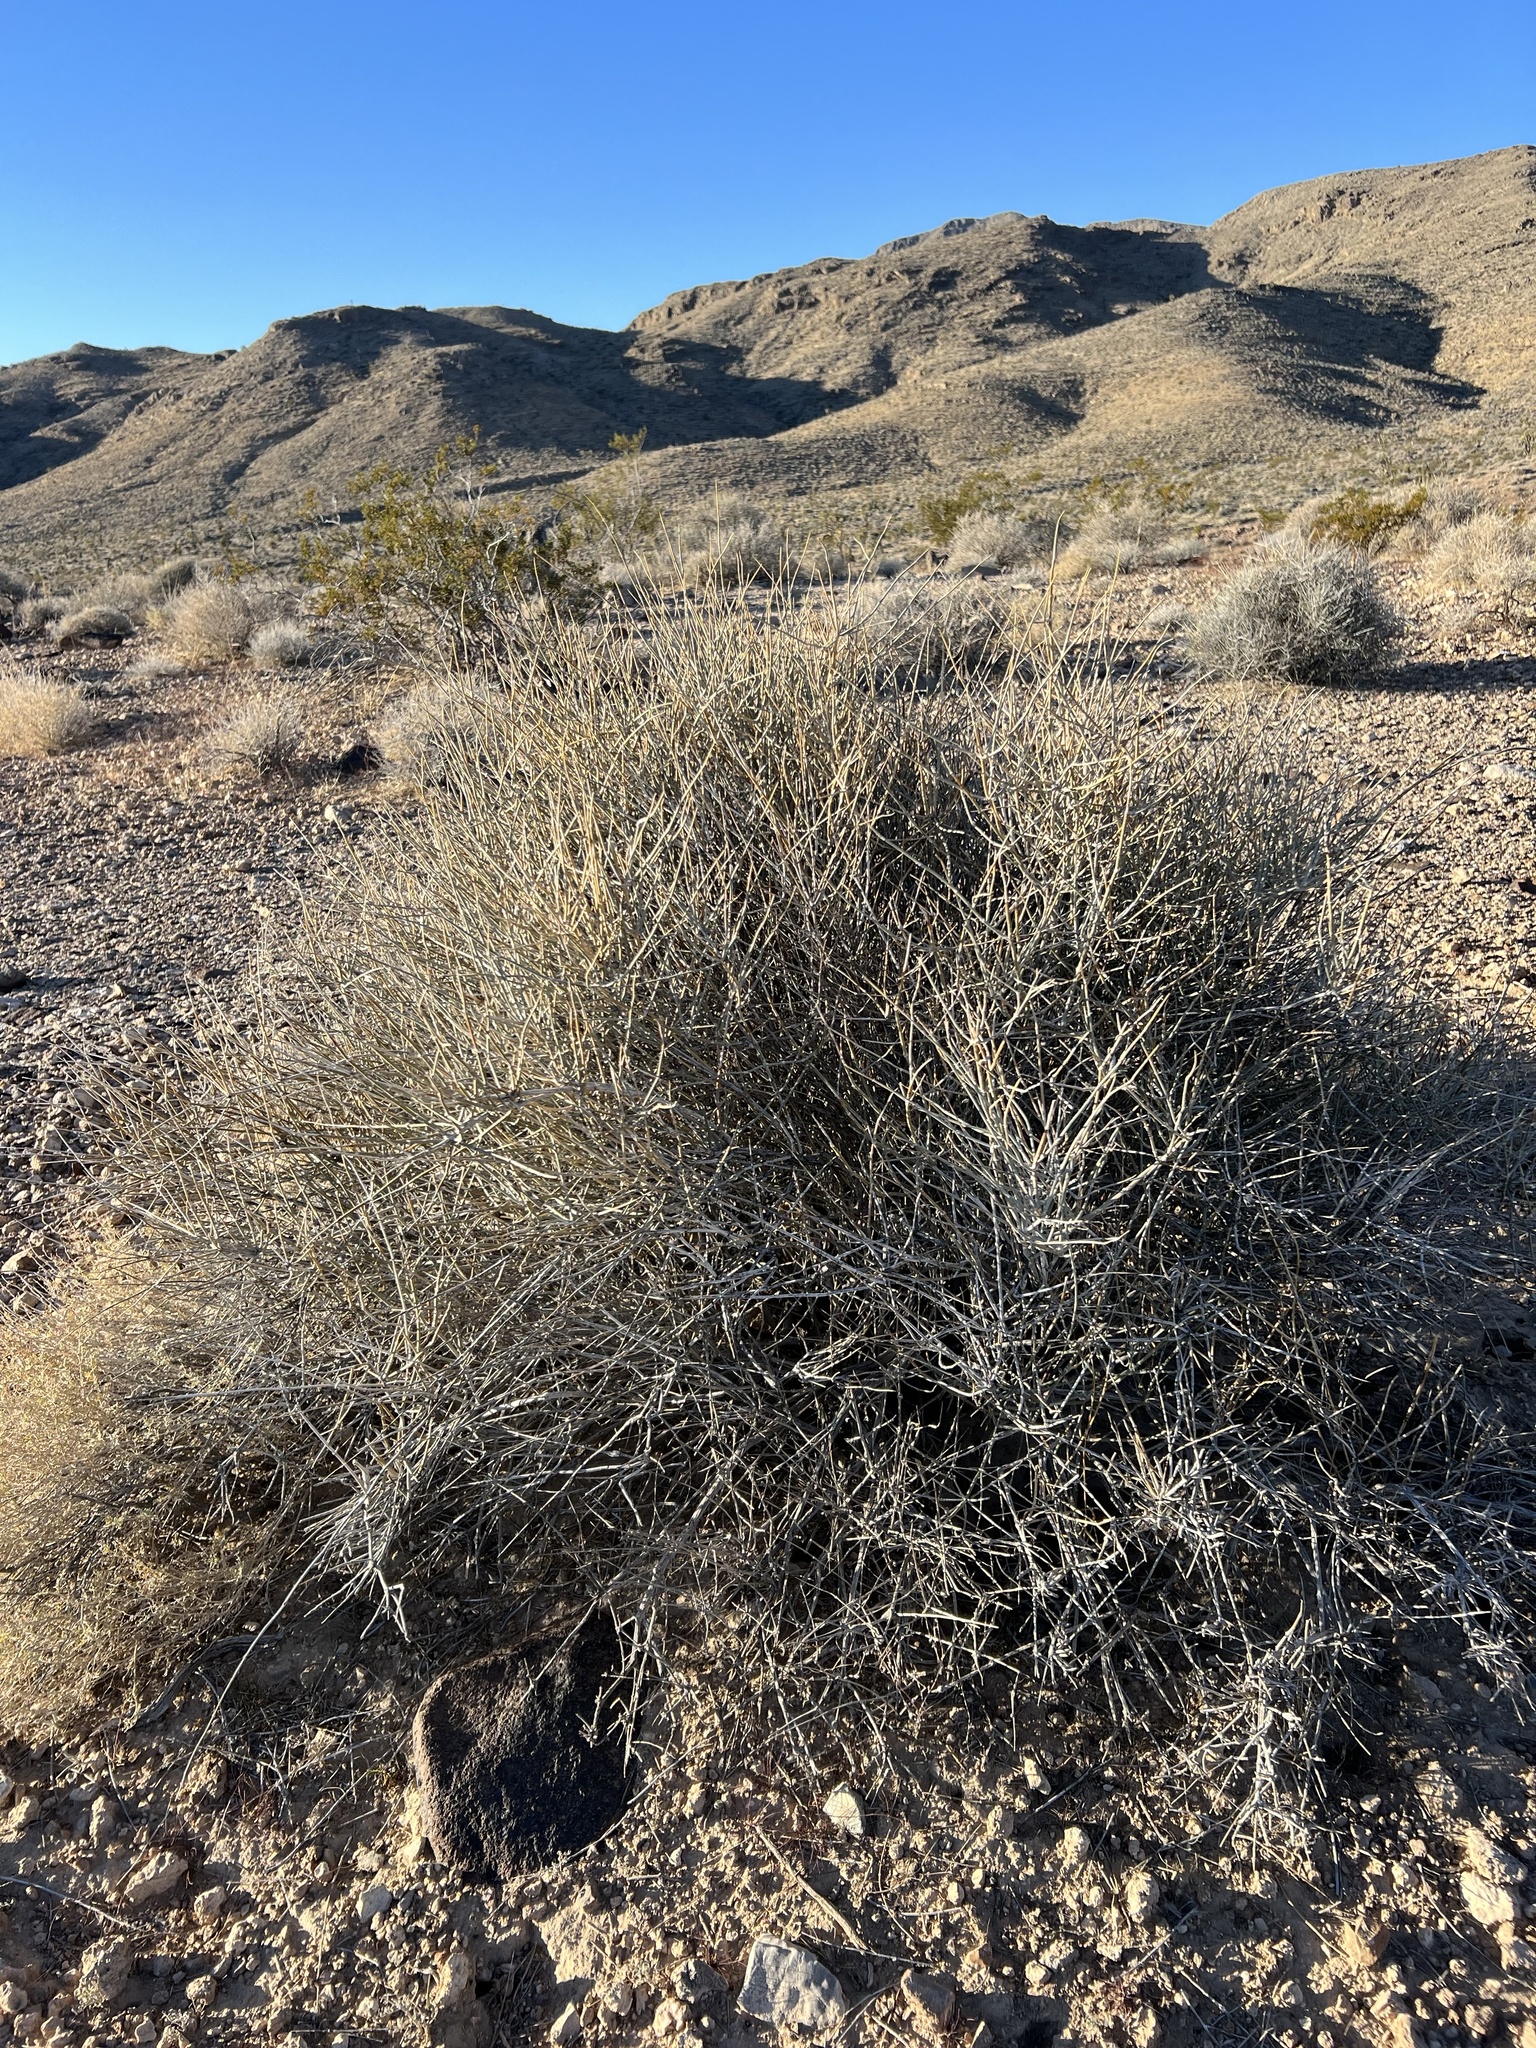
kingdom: Plantae
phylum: Tracheophyta
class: Gnetopsida
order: Ephedrales
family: Ephedraceae
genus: Ephedra
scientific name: Ephedra nevadensis
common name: Gray ephedra
